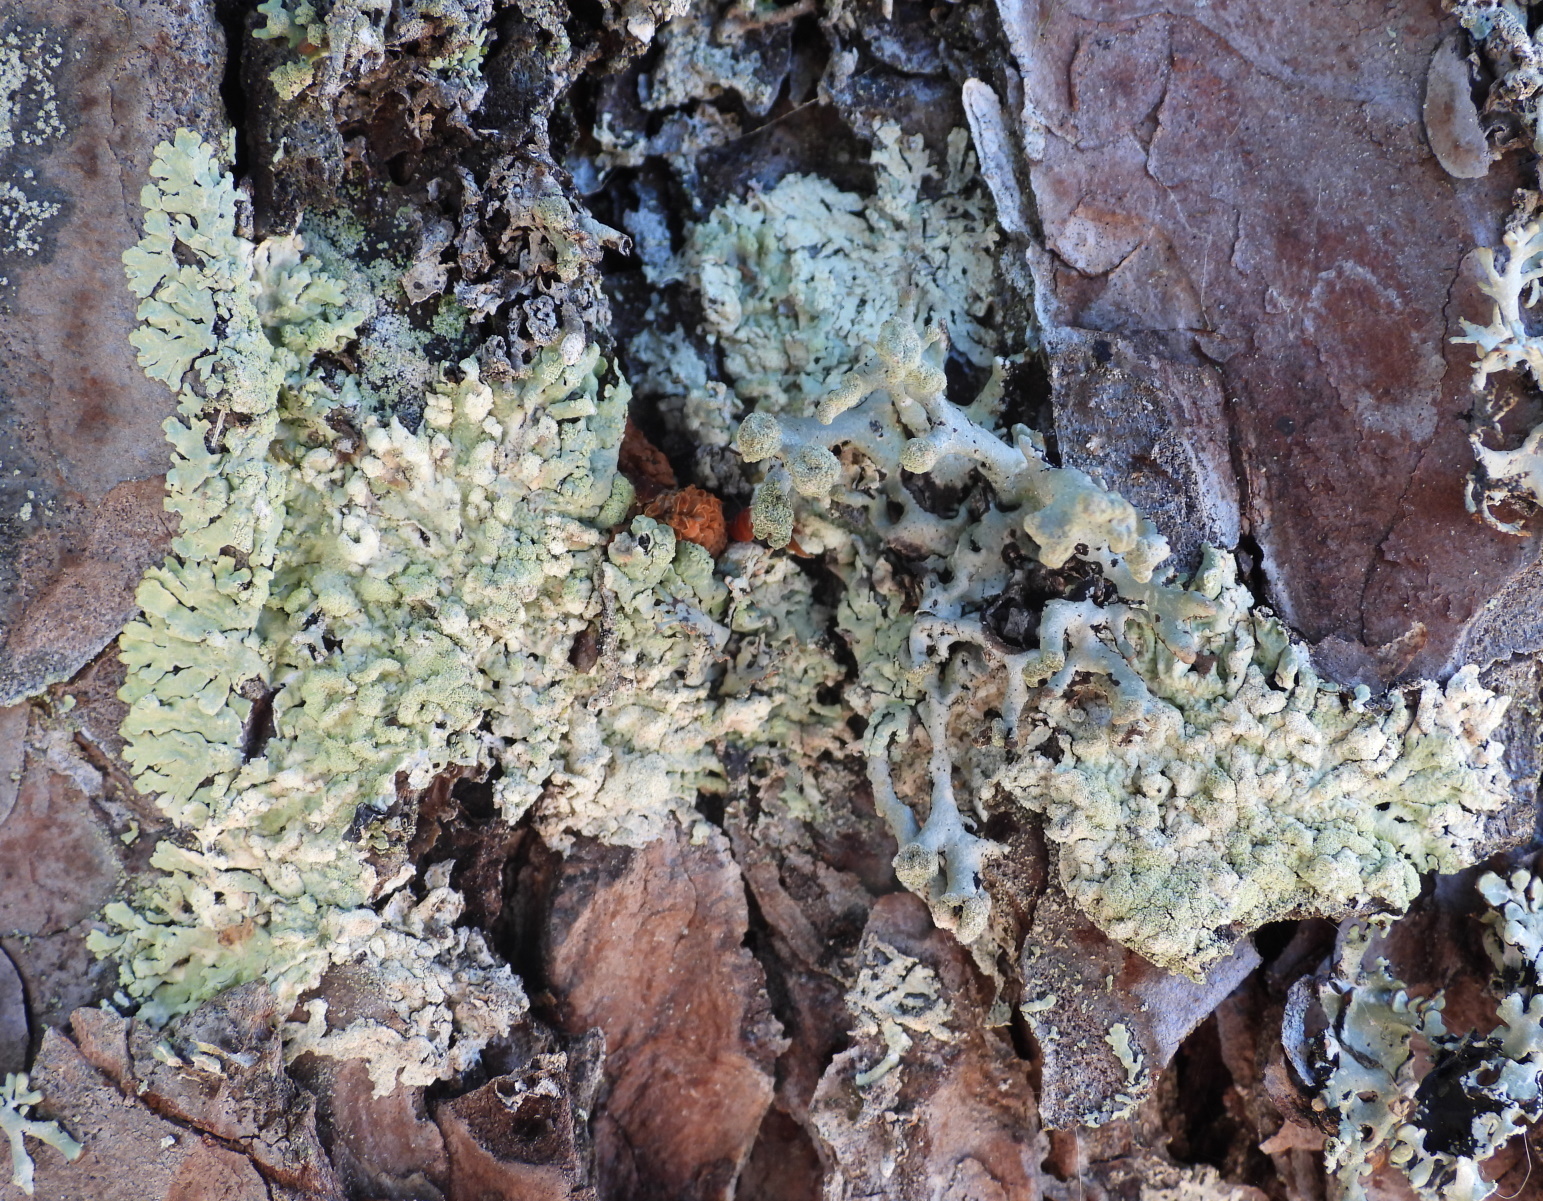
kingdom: Fungi
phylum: Ascomycota
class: Lecanoromycetes
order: Lecanorales
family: Parmeliaceae
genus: Parmeliopsis
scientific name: Parmeliopsis ambigua
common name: Green starburst lichen
